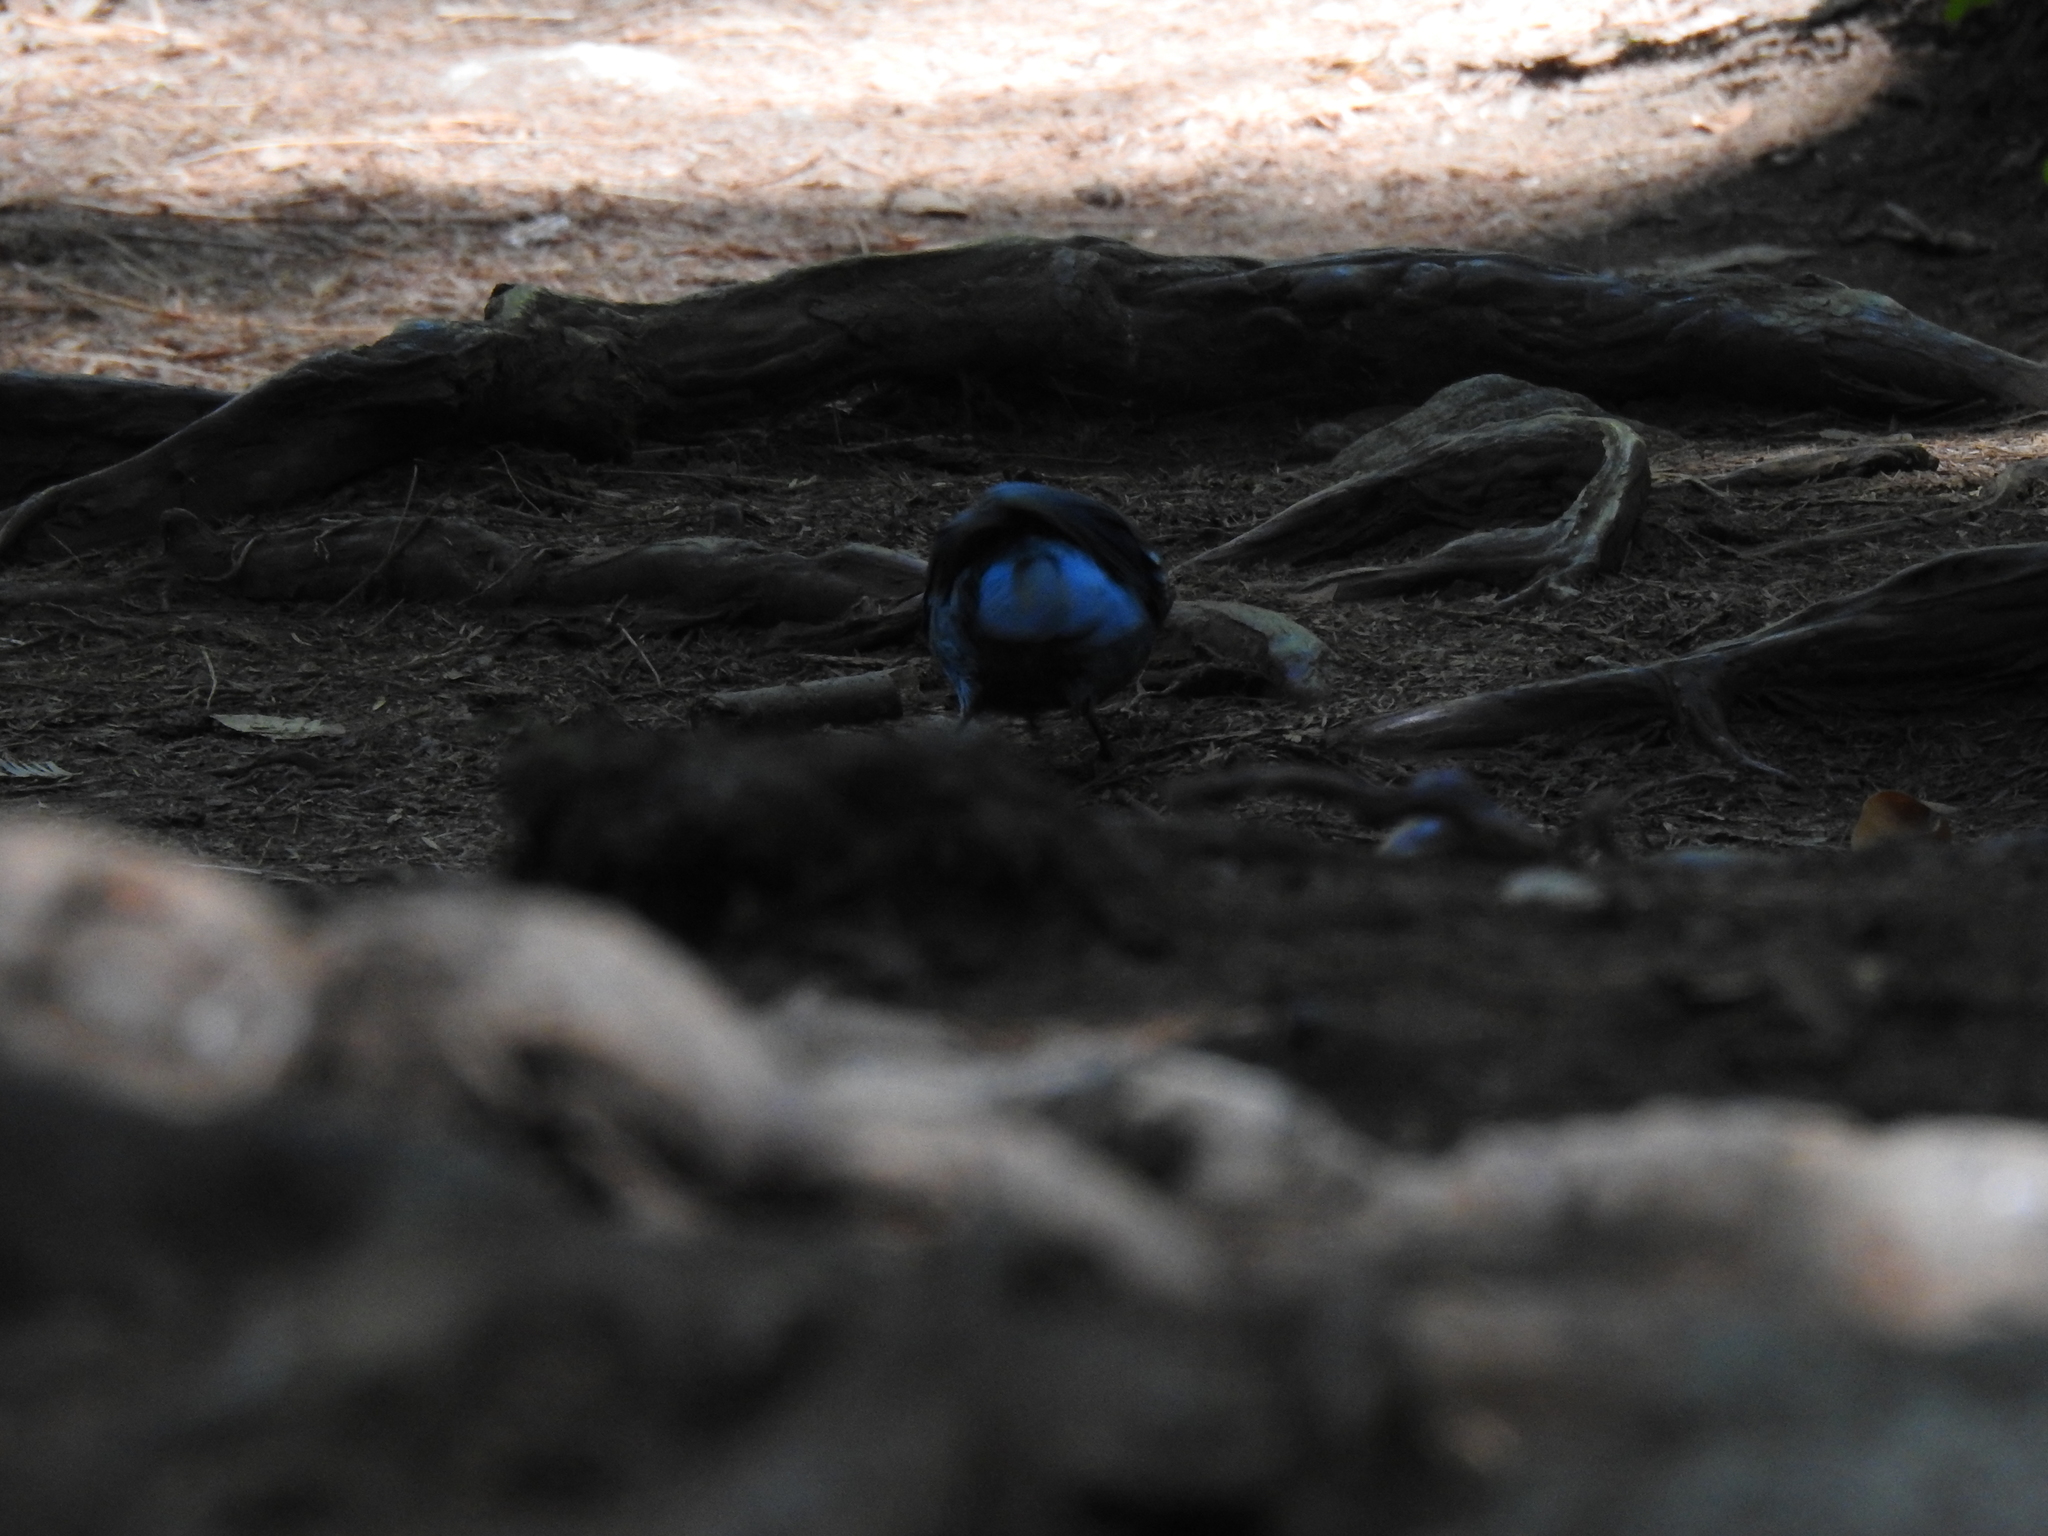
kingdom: Animalia
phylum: Chordata
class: Aves
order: Passeriformes
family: Corvidae
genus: Cyanocitta
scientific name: Cyanocitta stelleri
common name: Steller's jay
